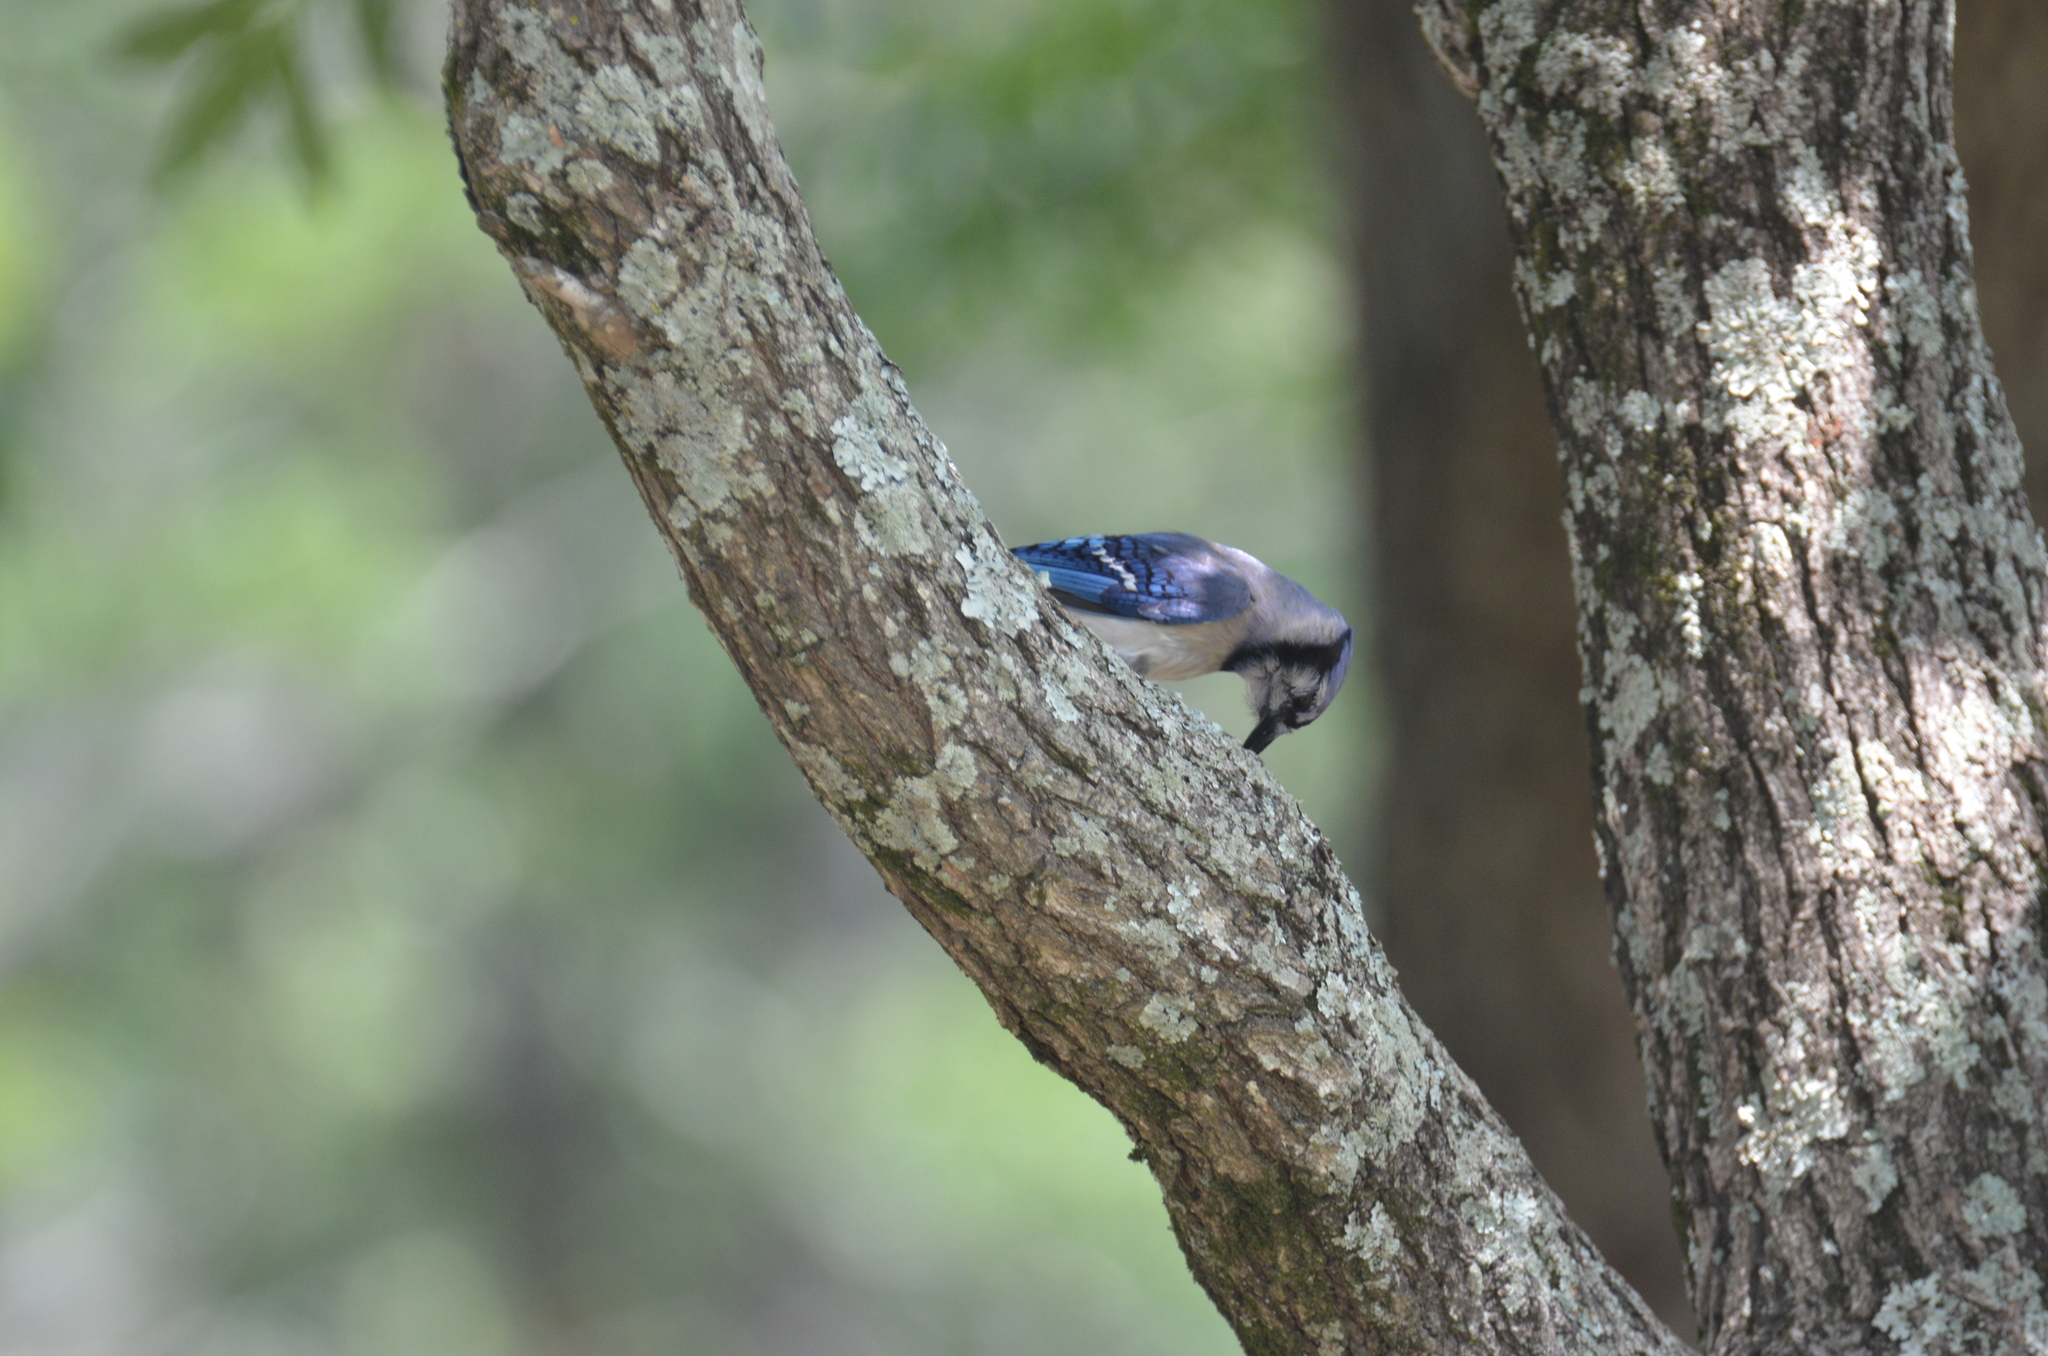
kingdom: Animalia
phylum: Chordata
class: Aves
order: Passeriformes
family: Corvidae
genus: Cyanocitta
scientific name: Cyanocitta cristata
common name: Blue jay
